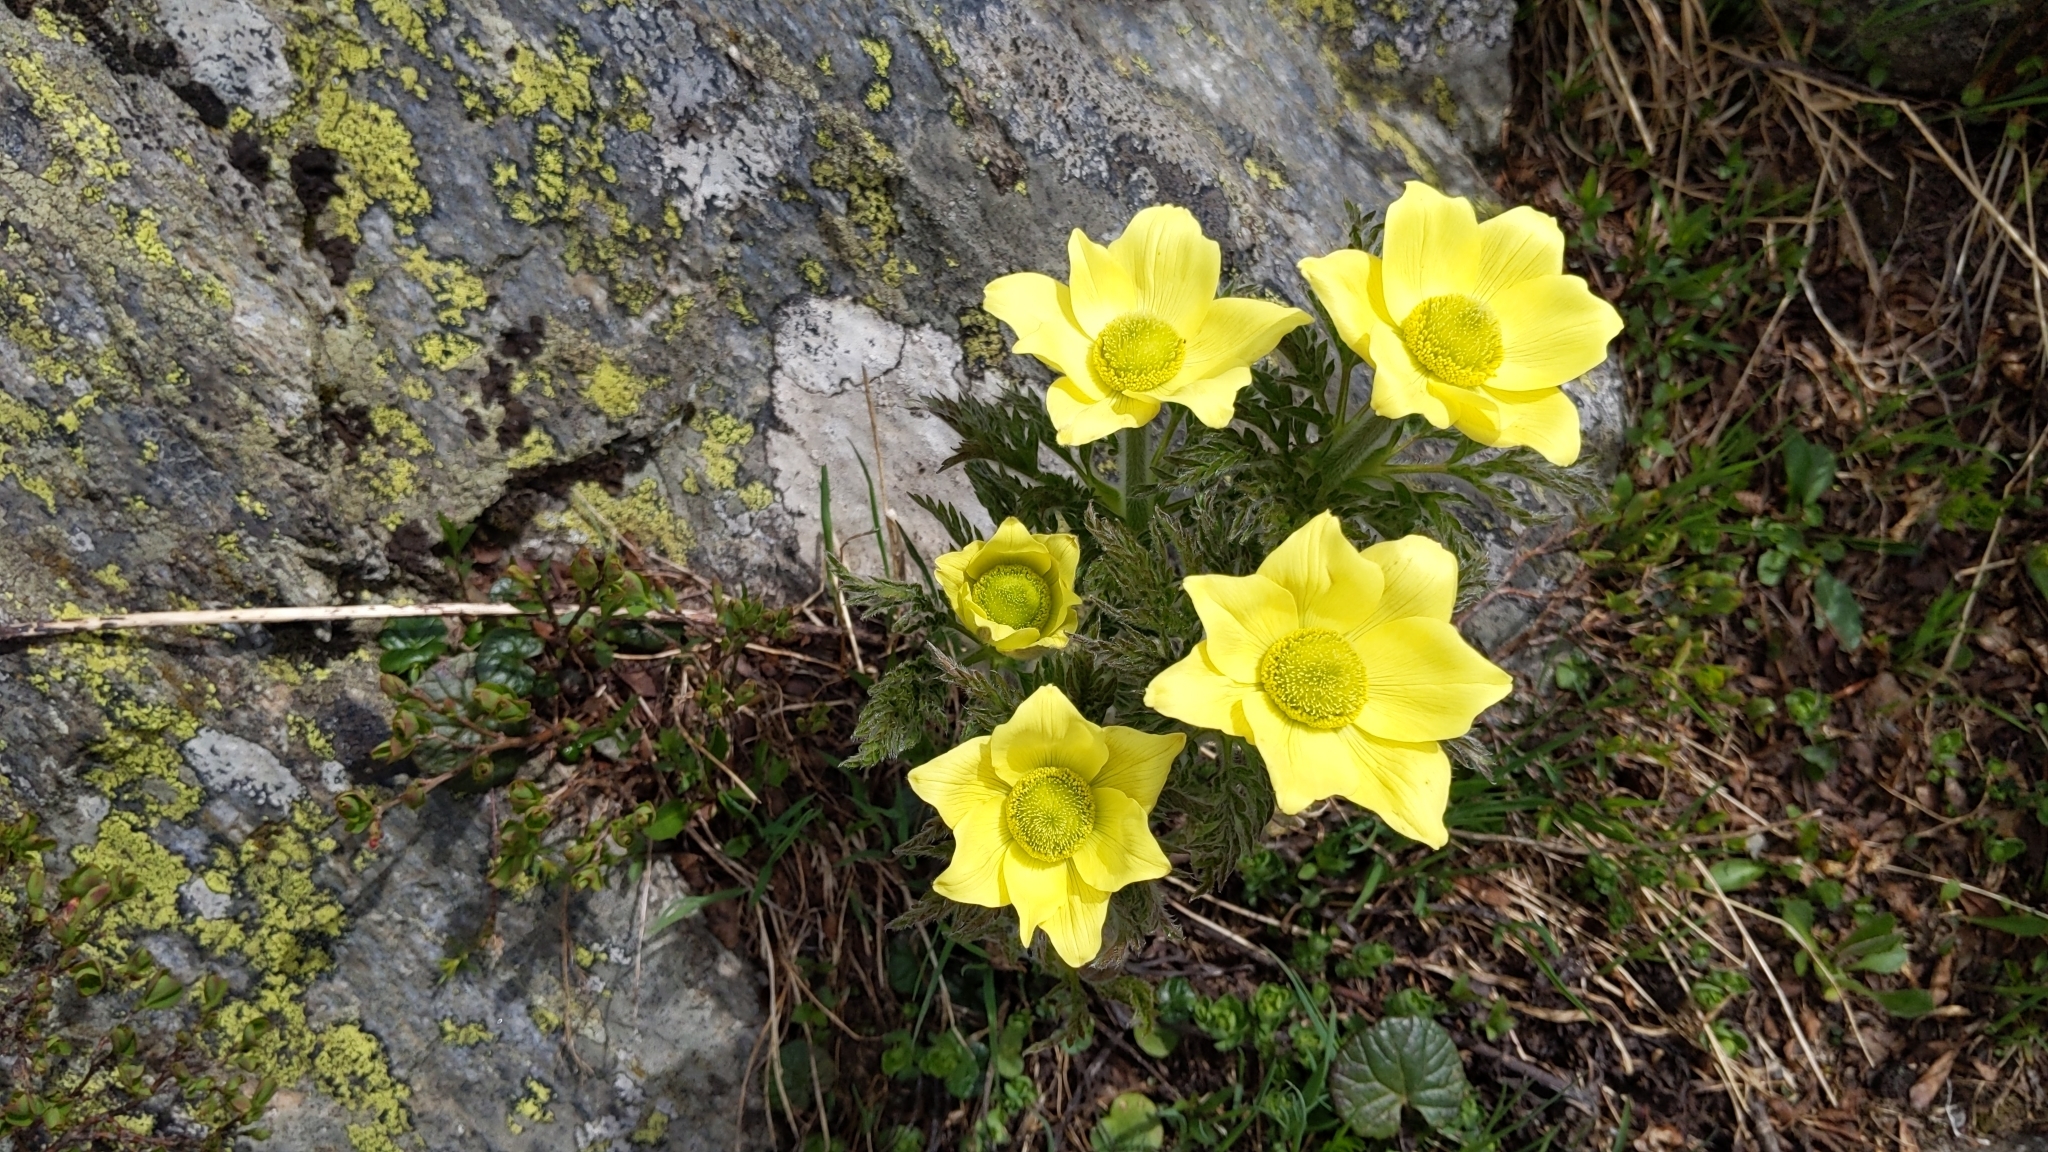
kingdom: Plantae
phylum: Tracheophyta
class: Magnoliopsida
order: Ranunculales
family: Ranunculaceae
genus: Pulsatilla
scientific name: Pulsatilla alpina
